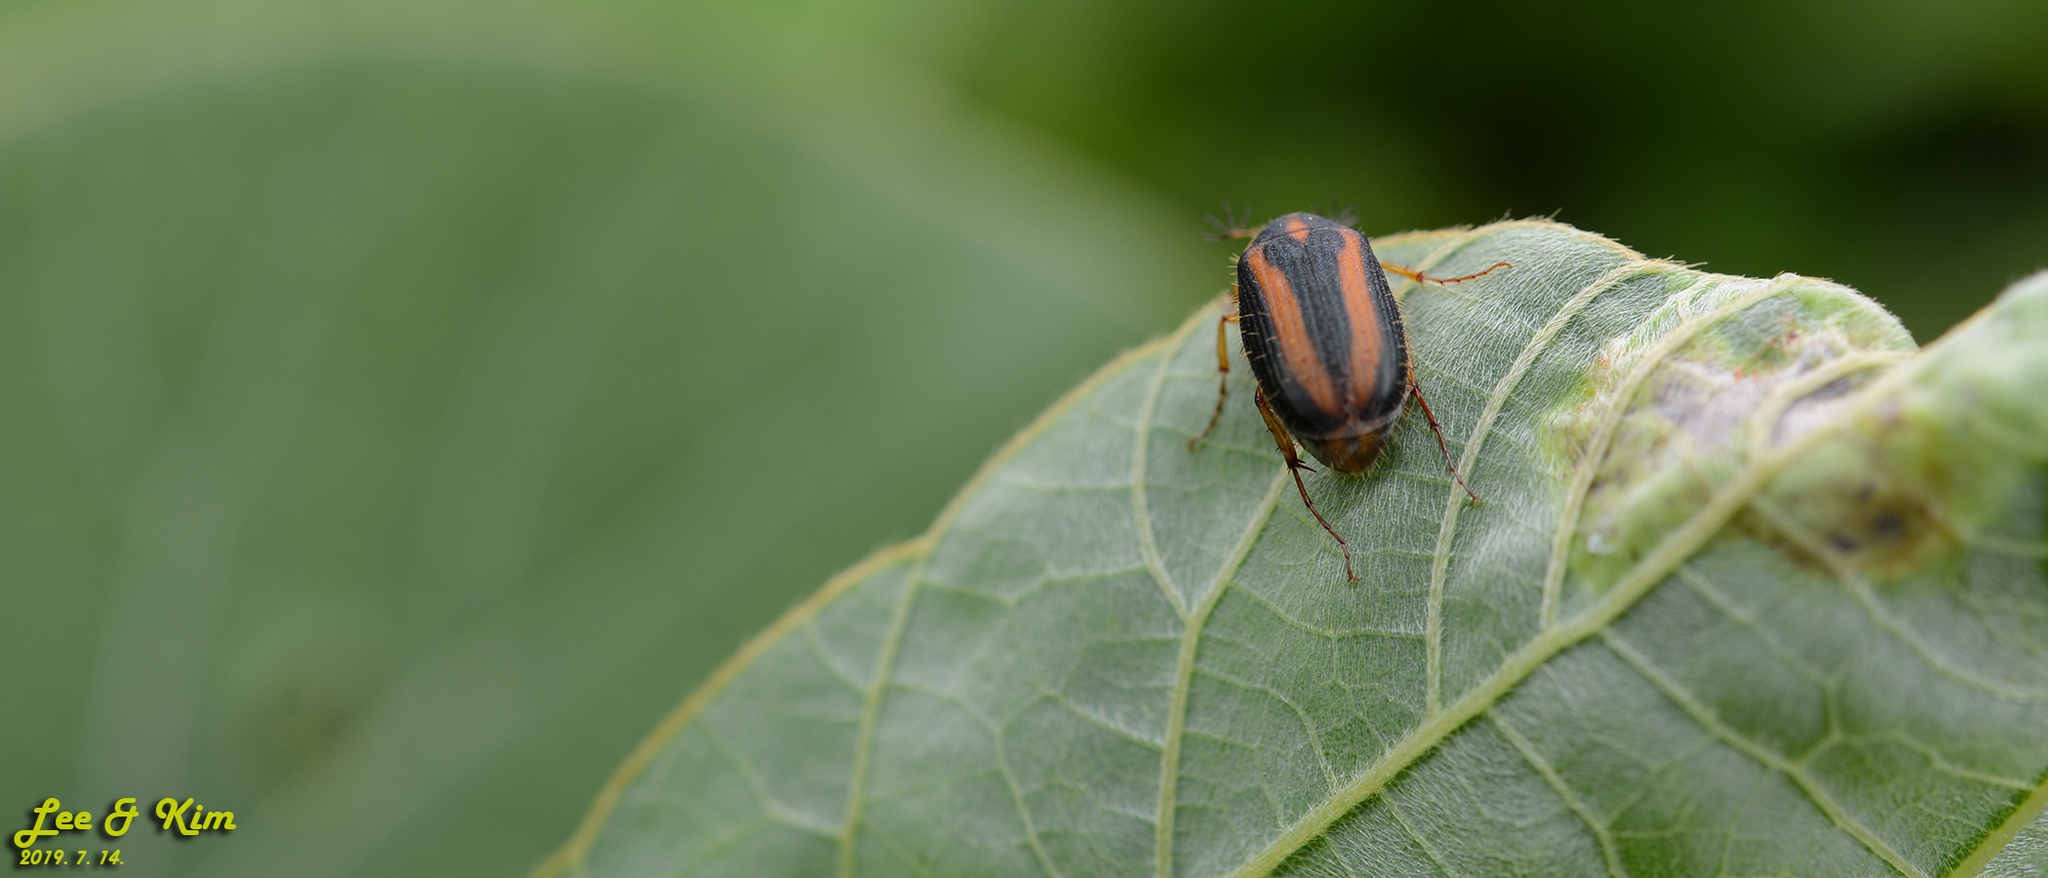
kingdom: Animalia
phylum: Arthropoda
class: Insecta
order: Coleoptera
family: Scarabaeidae
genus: Gastroserica
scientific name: Gastroserica herzi
